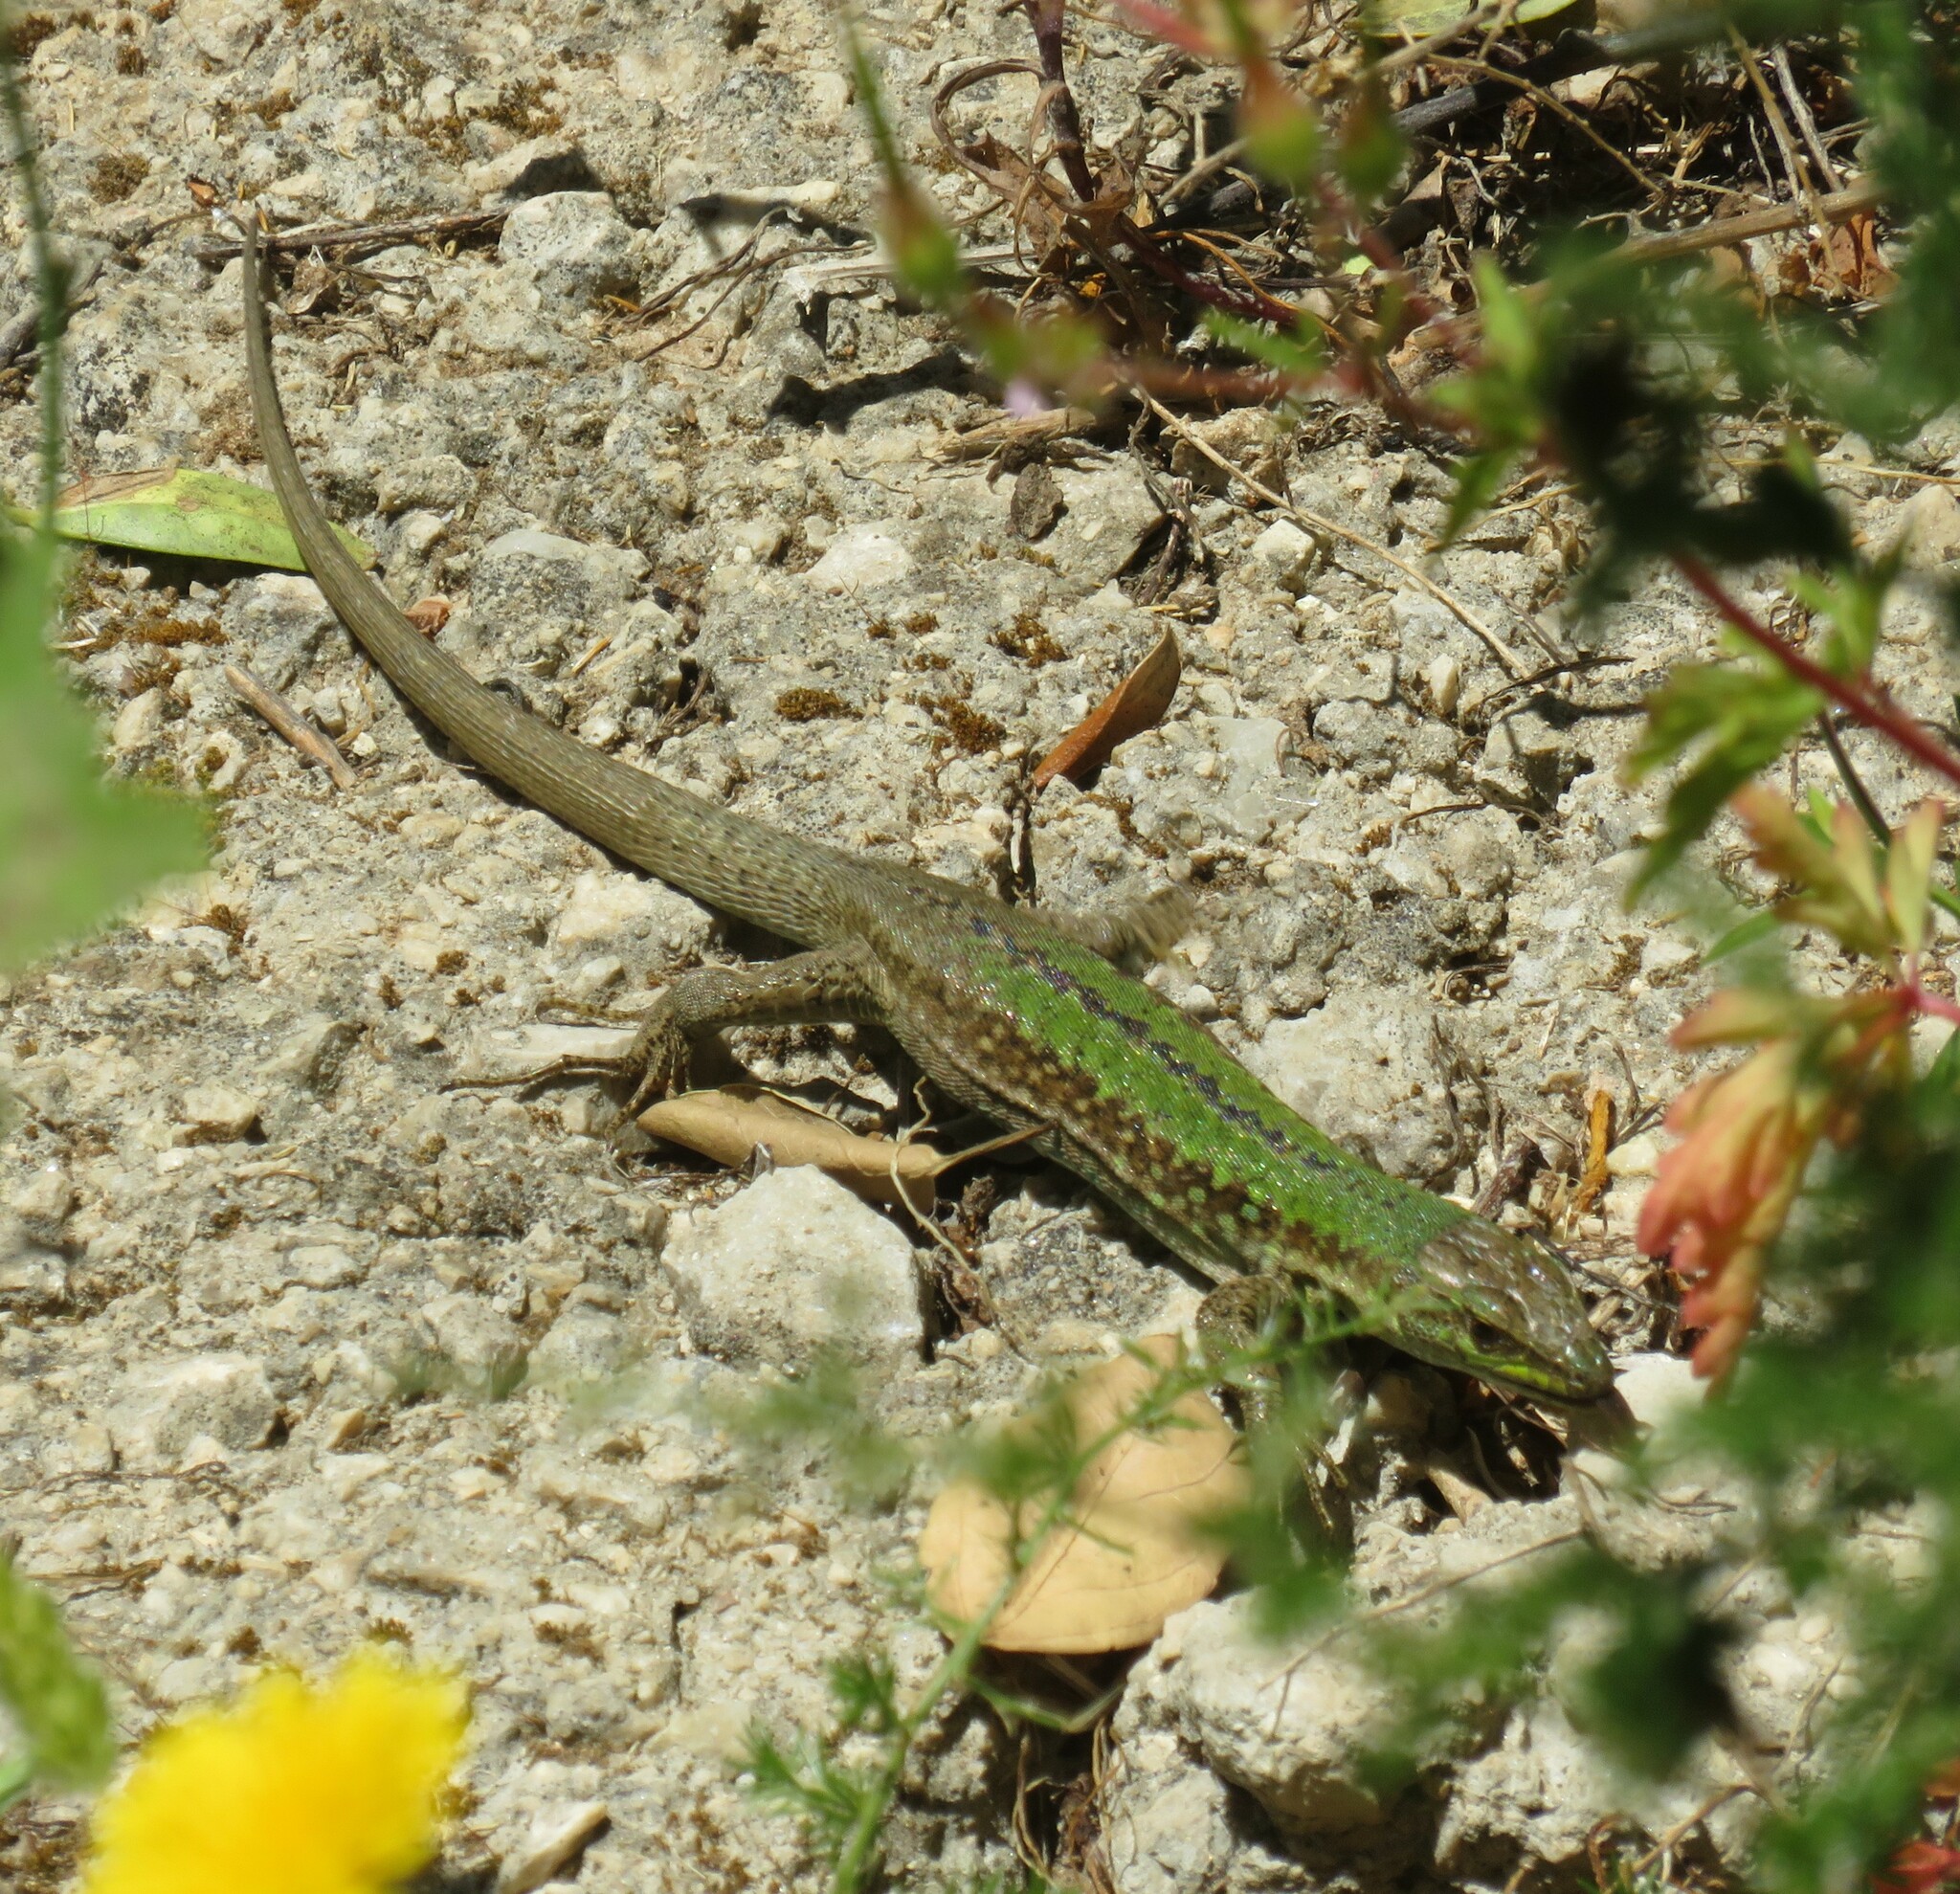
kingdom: Animalia
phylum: Chordata
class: Squamata
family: Lacertidae
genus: Podarcis
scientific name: Podarcis siculus
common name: Italian wall lizard
